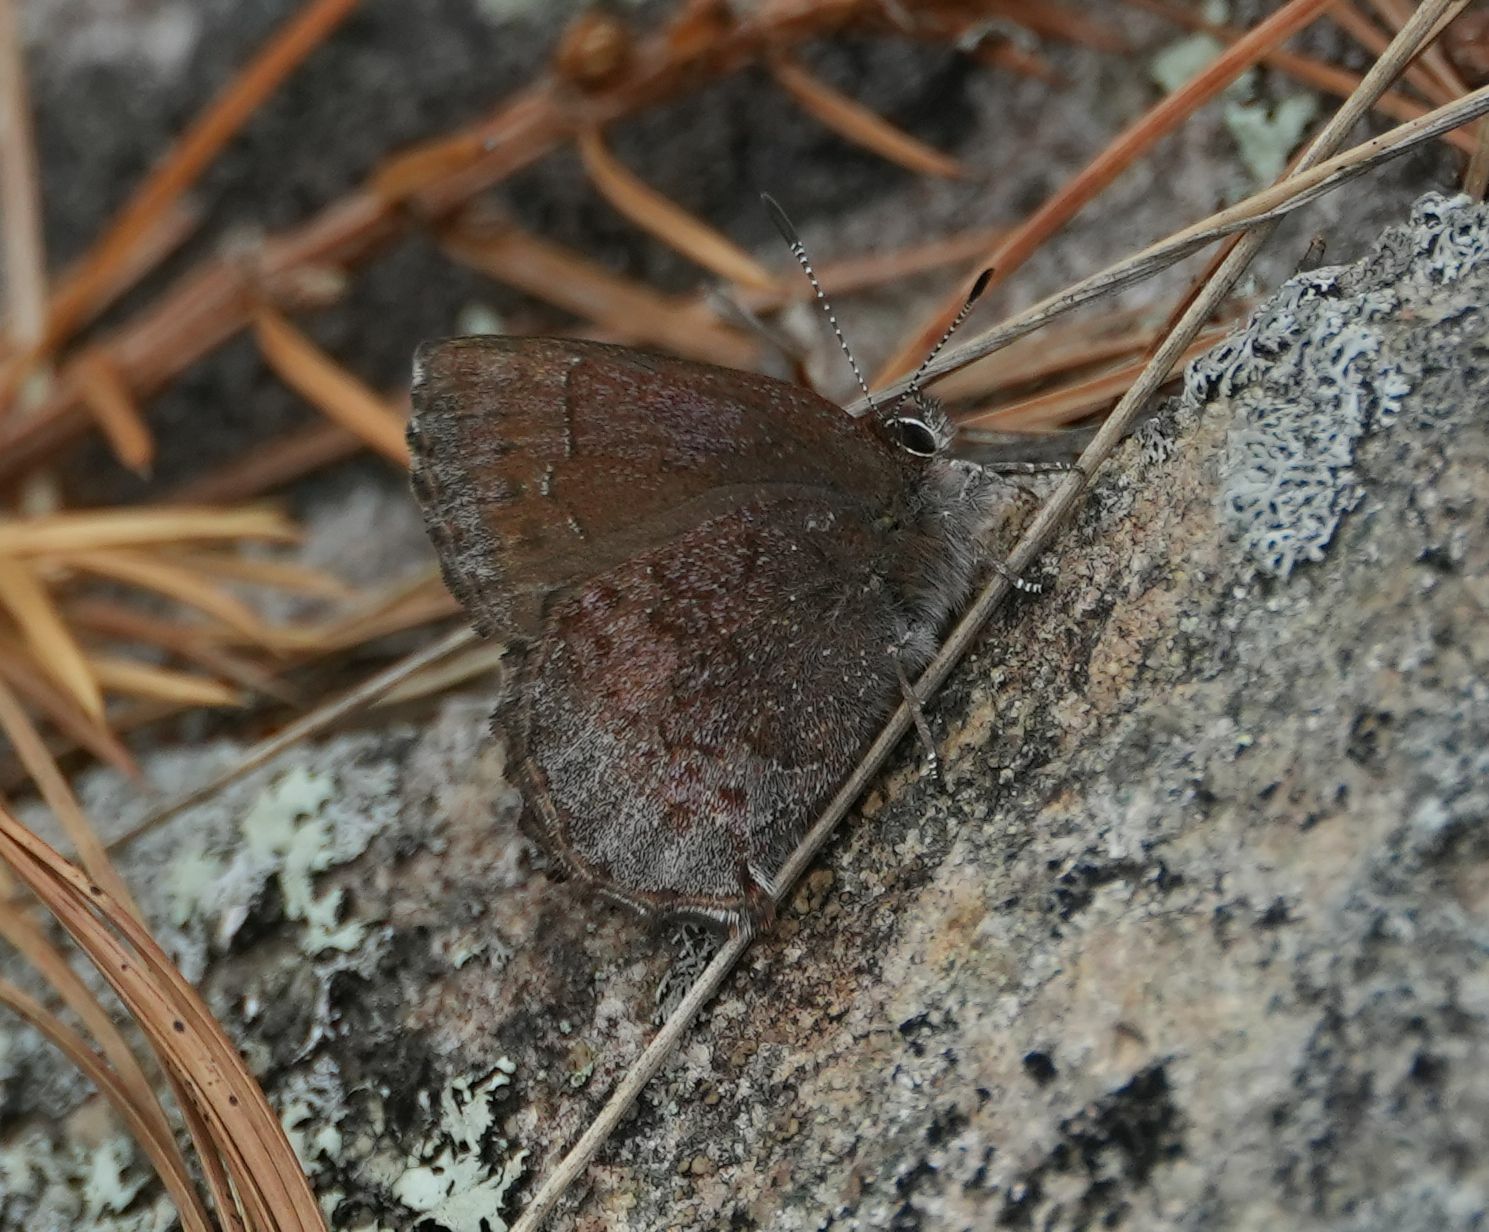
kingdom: Animalia
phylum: Arthropoda
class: Insecta
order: Lepidoptera
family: Lycaenidae
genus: Callophrys
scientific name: Callophrys polios
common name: Hoary elfin
